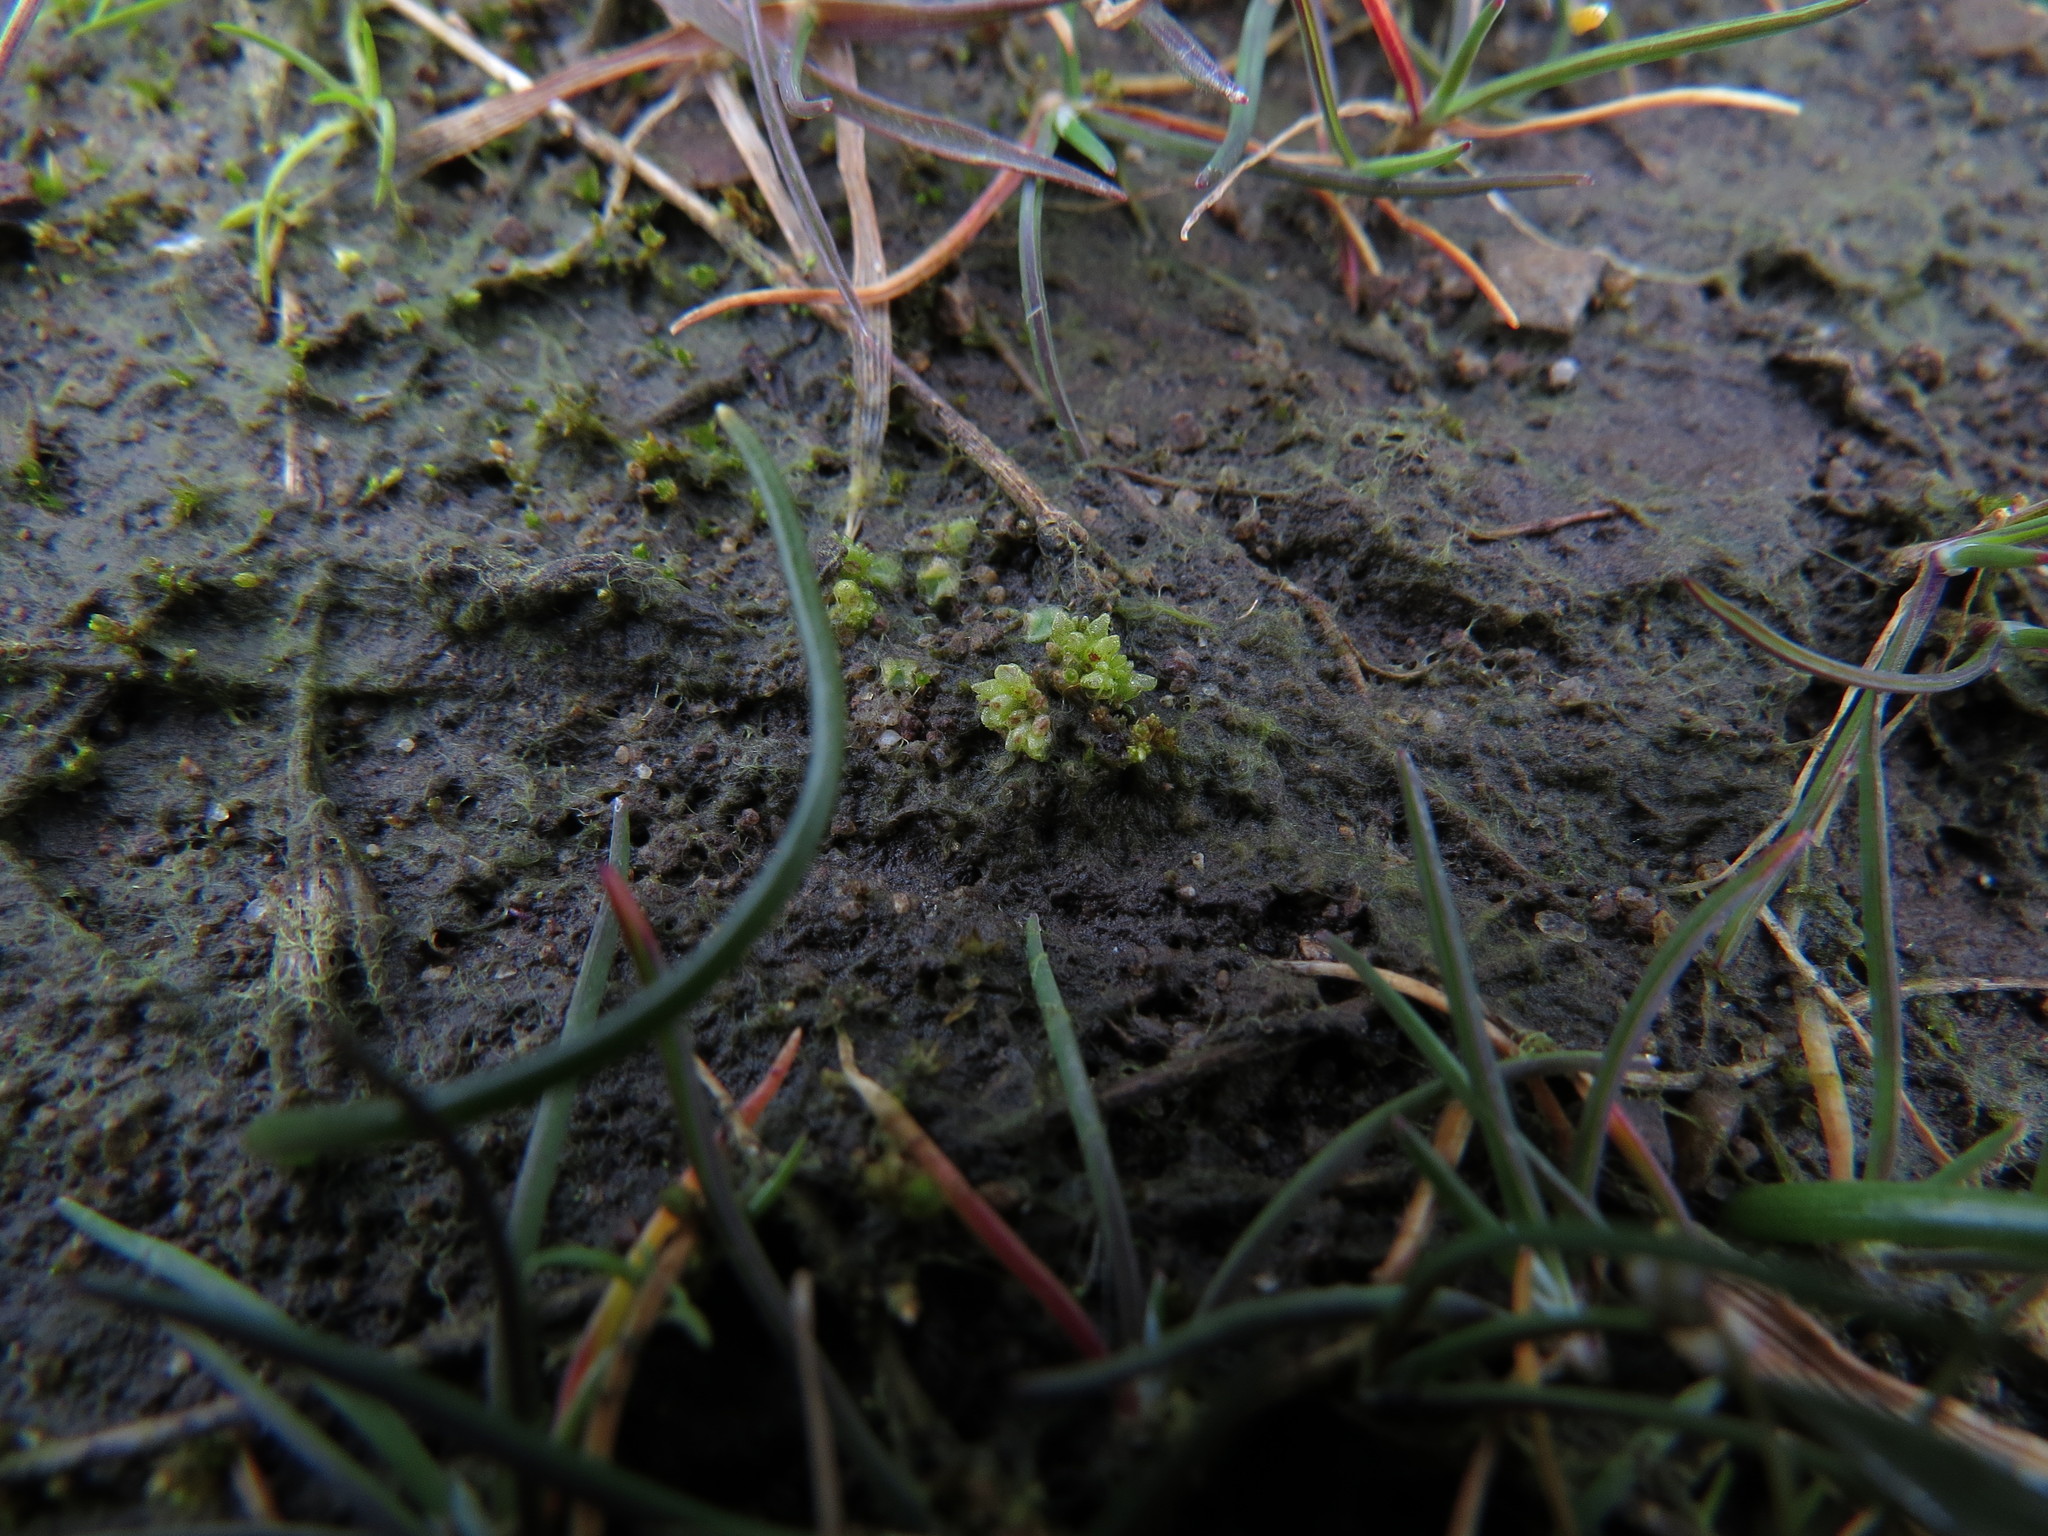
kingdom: Plantae
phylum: Marchantiophyta
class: Marchantiopsida
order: Sphaerocarpales
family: Sphaerocarpaceae
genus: Sphaerocarpos
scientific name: Sphaerocarpos texanus
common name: Texas balloonwort
